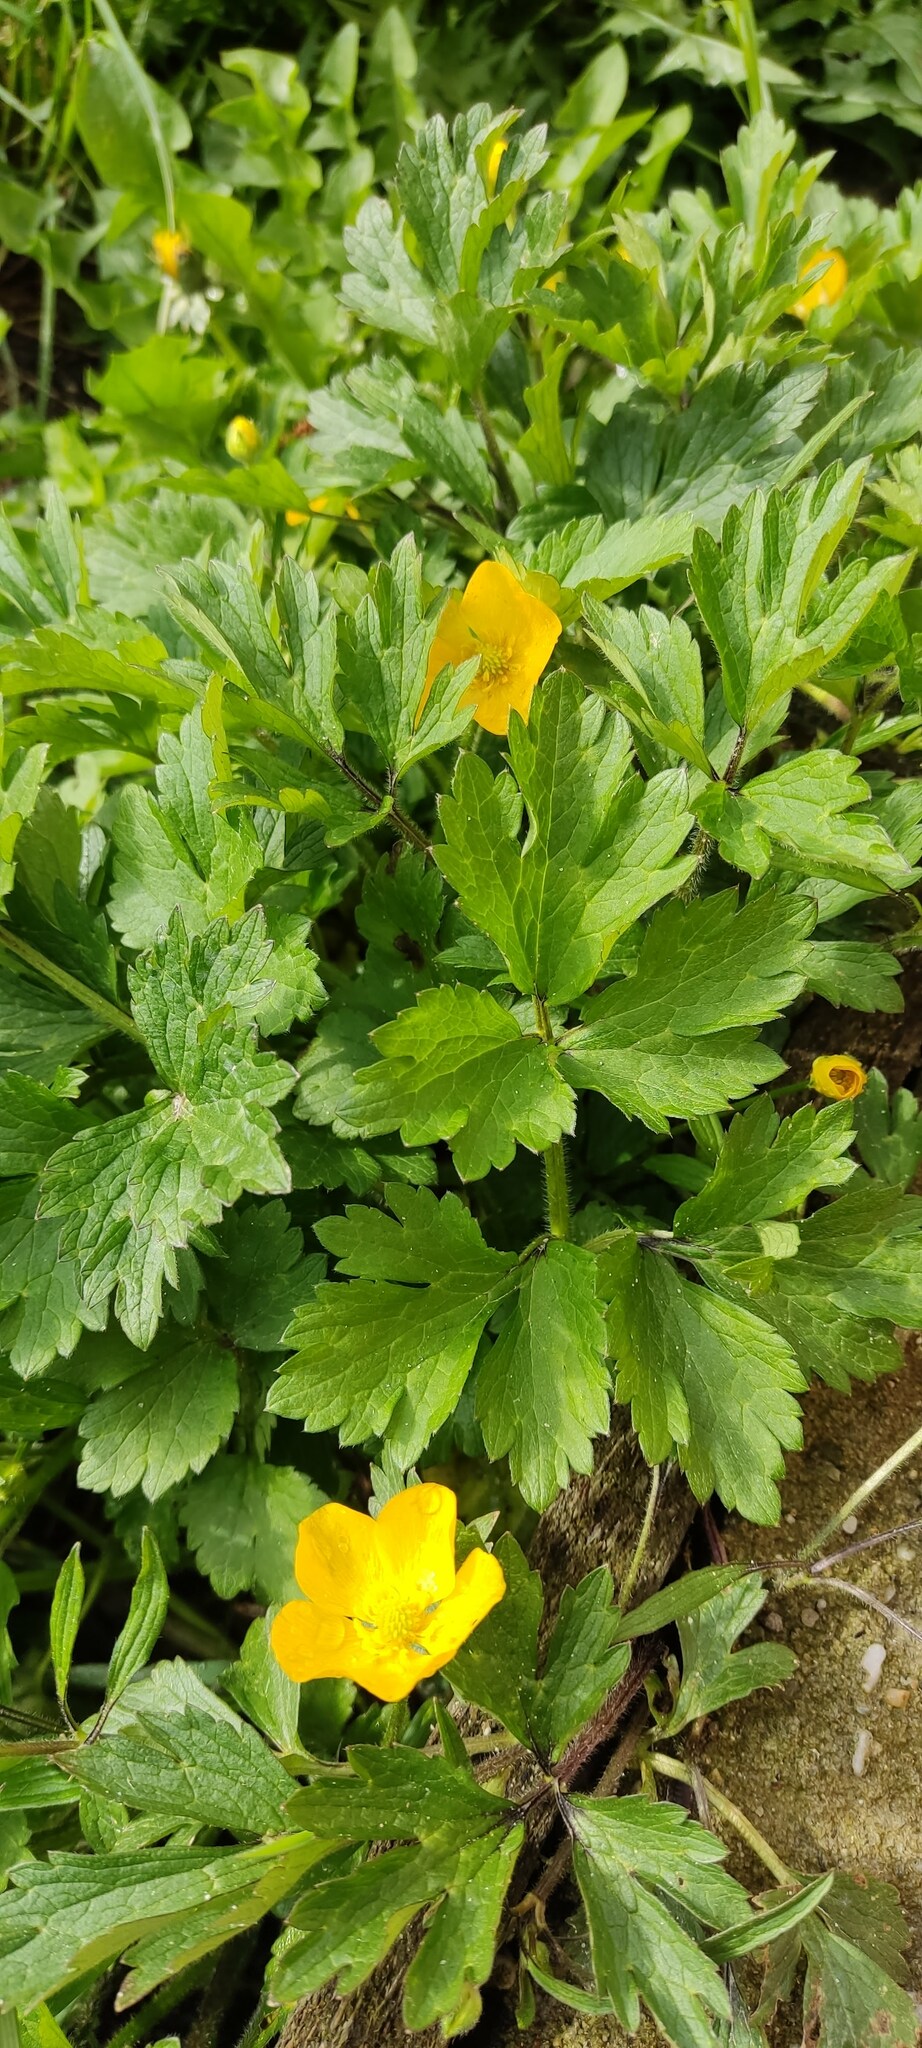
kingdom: Plantae
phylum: Tracheophyta
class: Magnoliopsida
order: Ranunculales
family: Ranunculaceae
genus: Ranunculus
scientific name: Ranunculus repens
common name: Creeping buttercup
